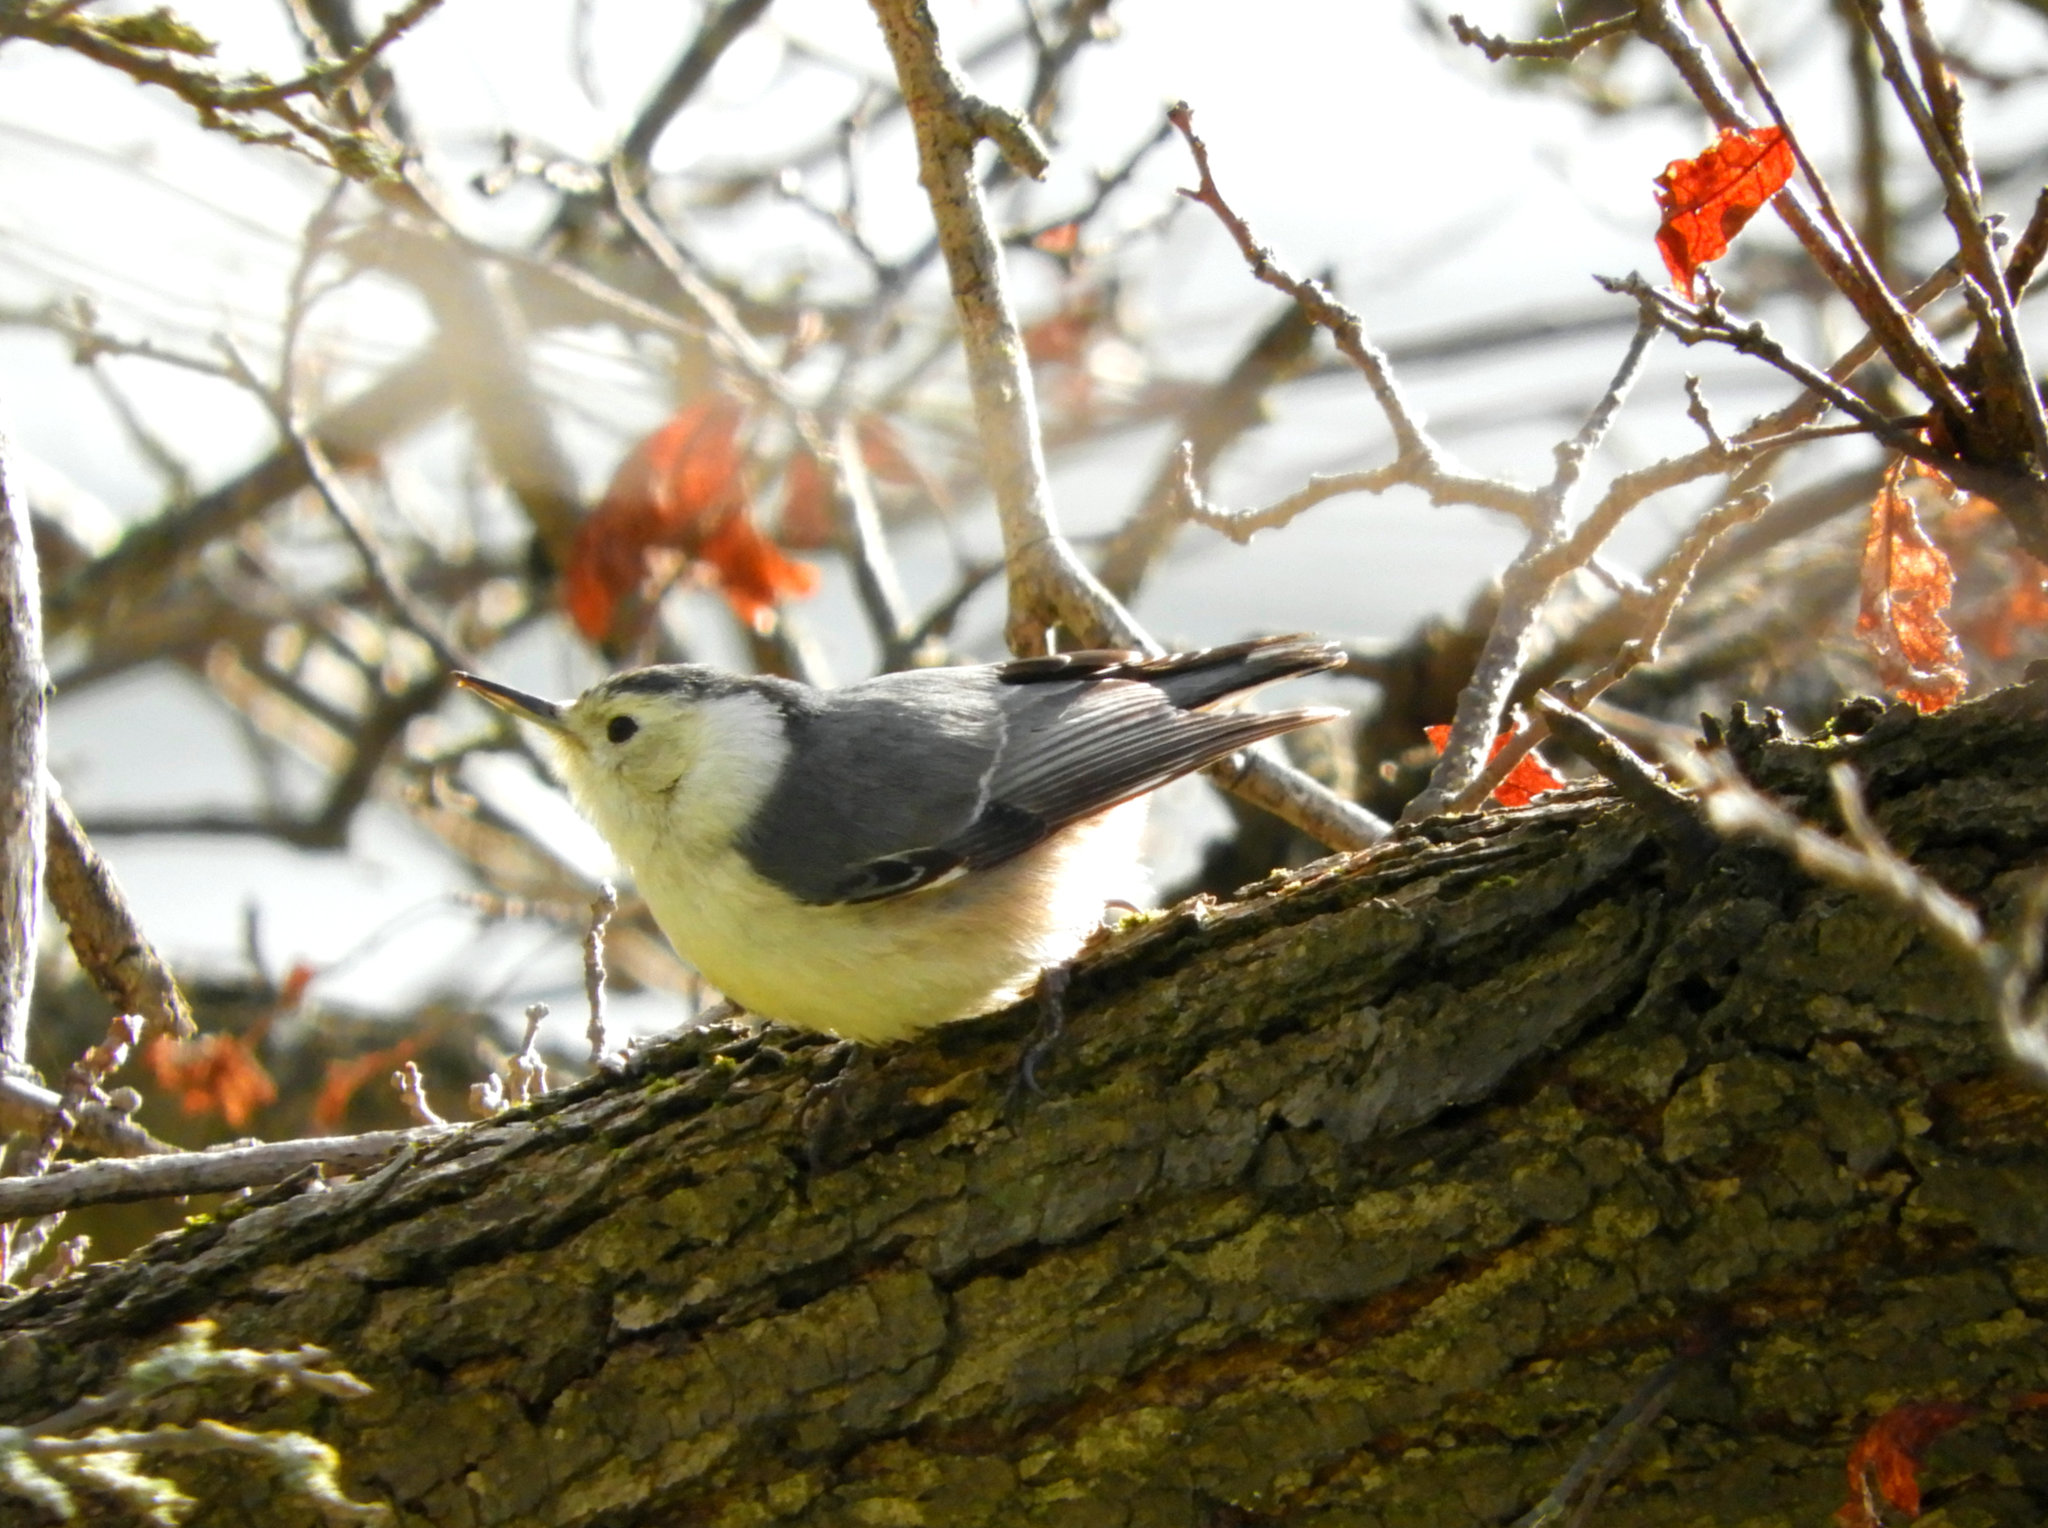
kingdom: Animalia
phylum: Chordata
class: Aves
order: Passeriformes
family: Sittidae
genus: Sitta
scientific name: Sitta carolinensis
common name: White-breasted nuthatch
